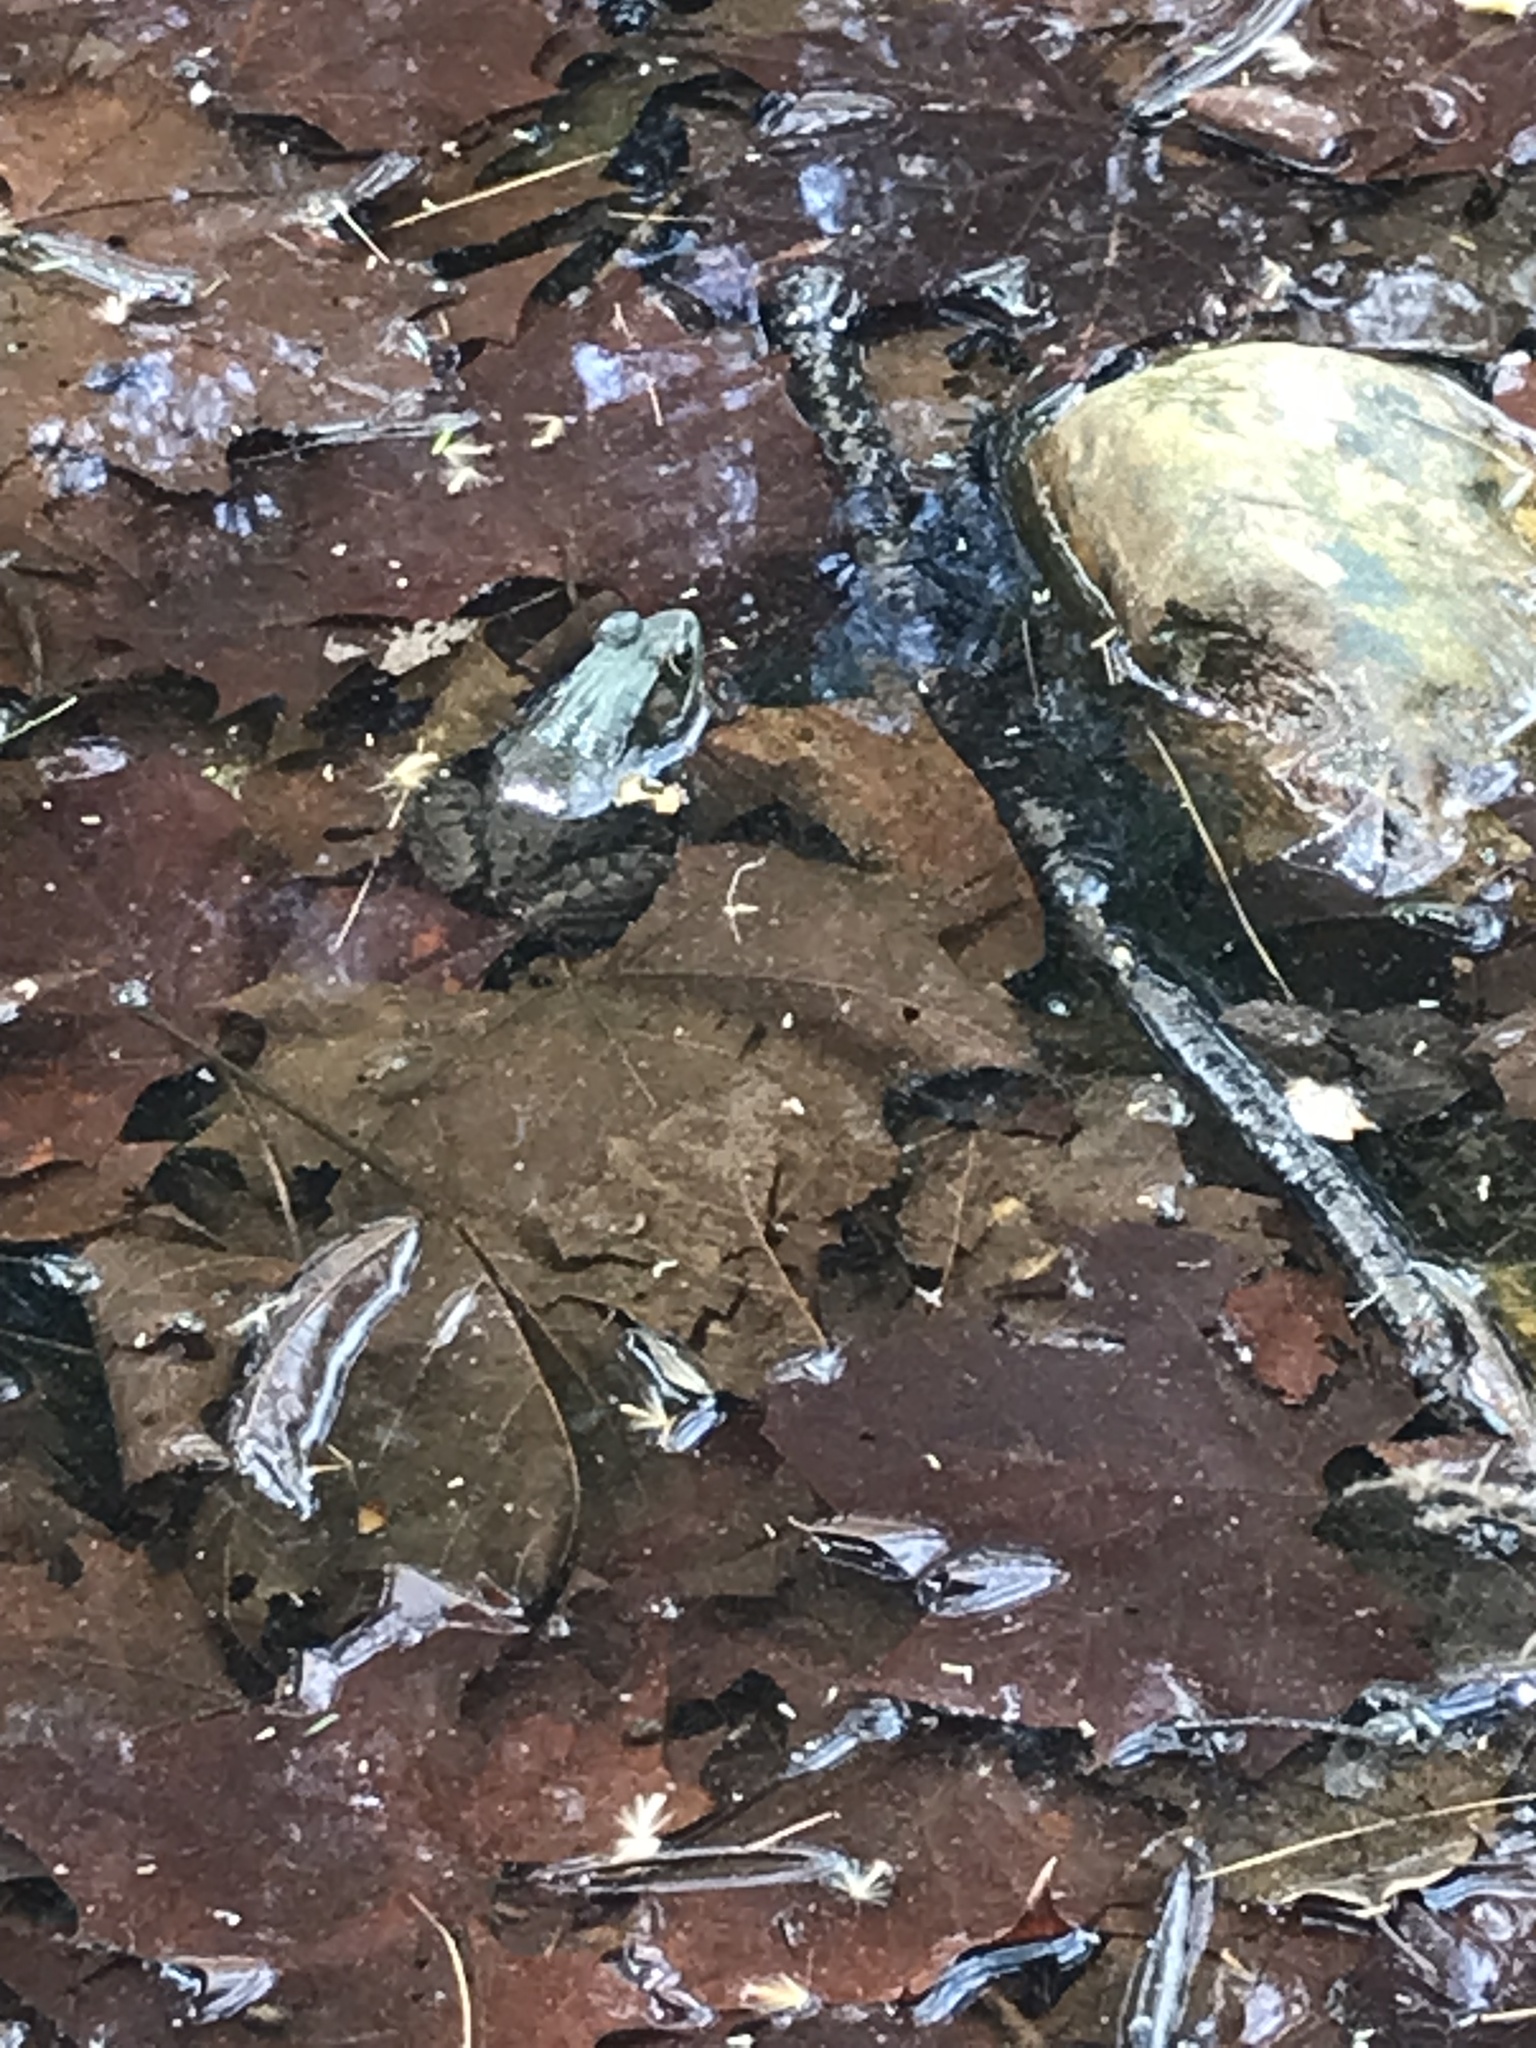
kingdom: Animalia
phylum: Chordata
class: Amphibia
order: Anura
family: Ranidae
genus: Lithobates
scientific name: Lithobates clamitans
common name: Green frog
